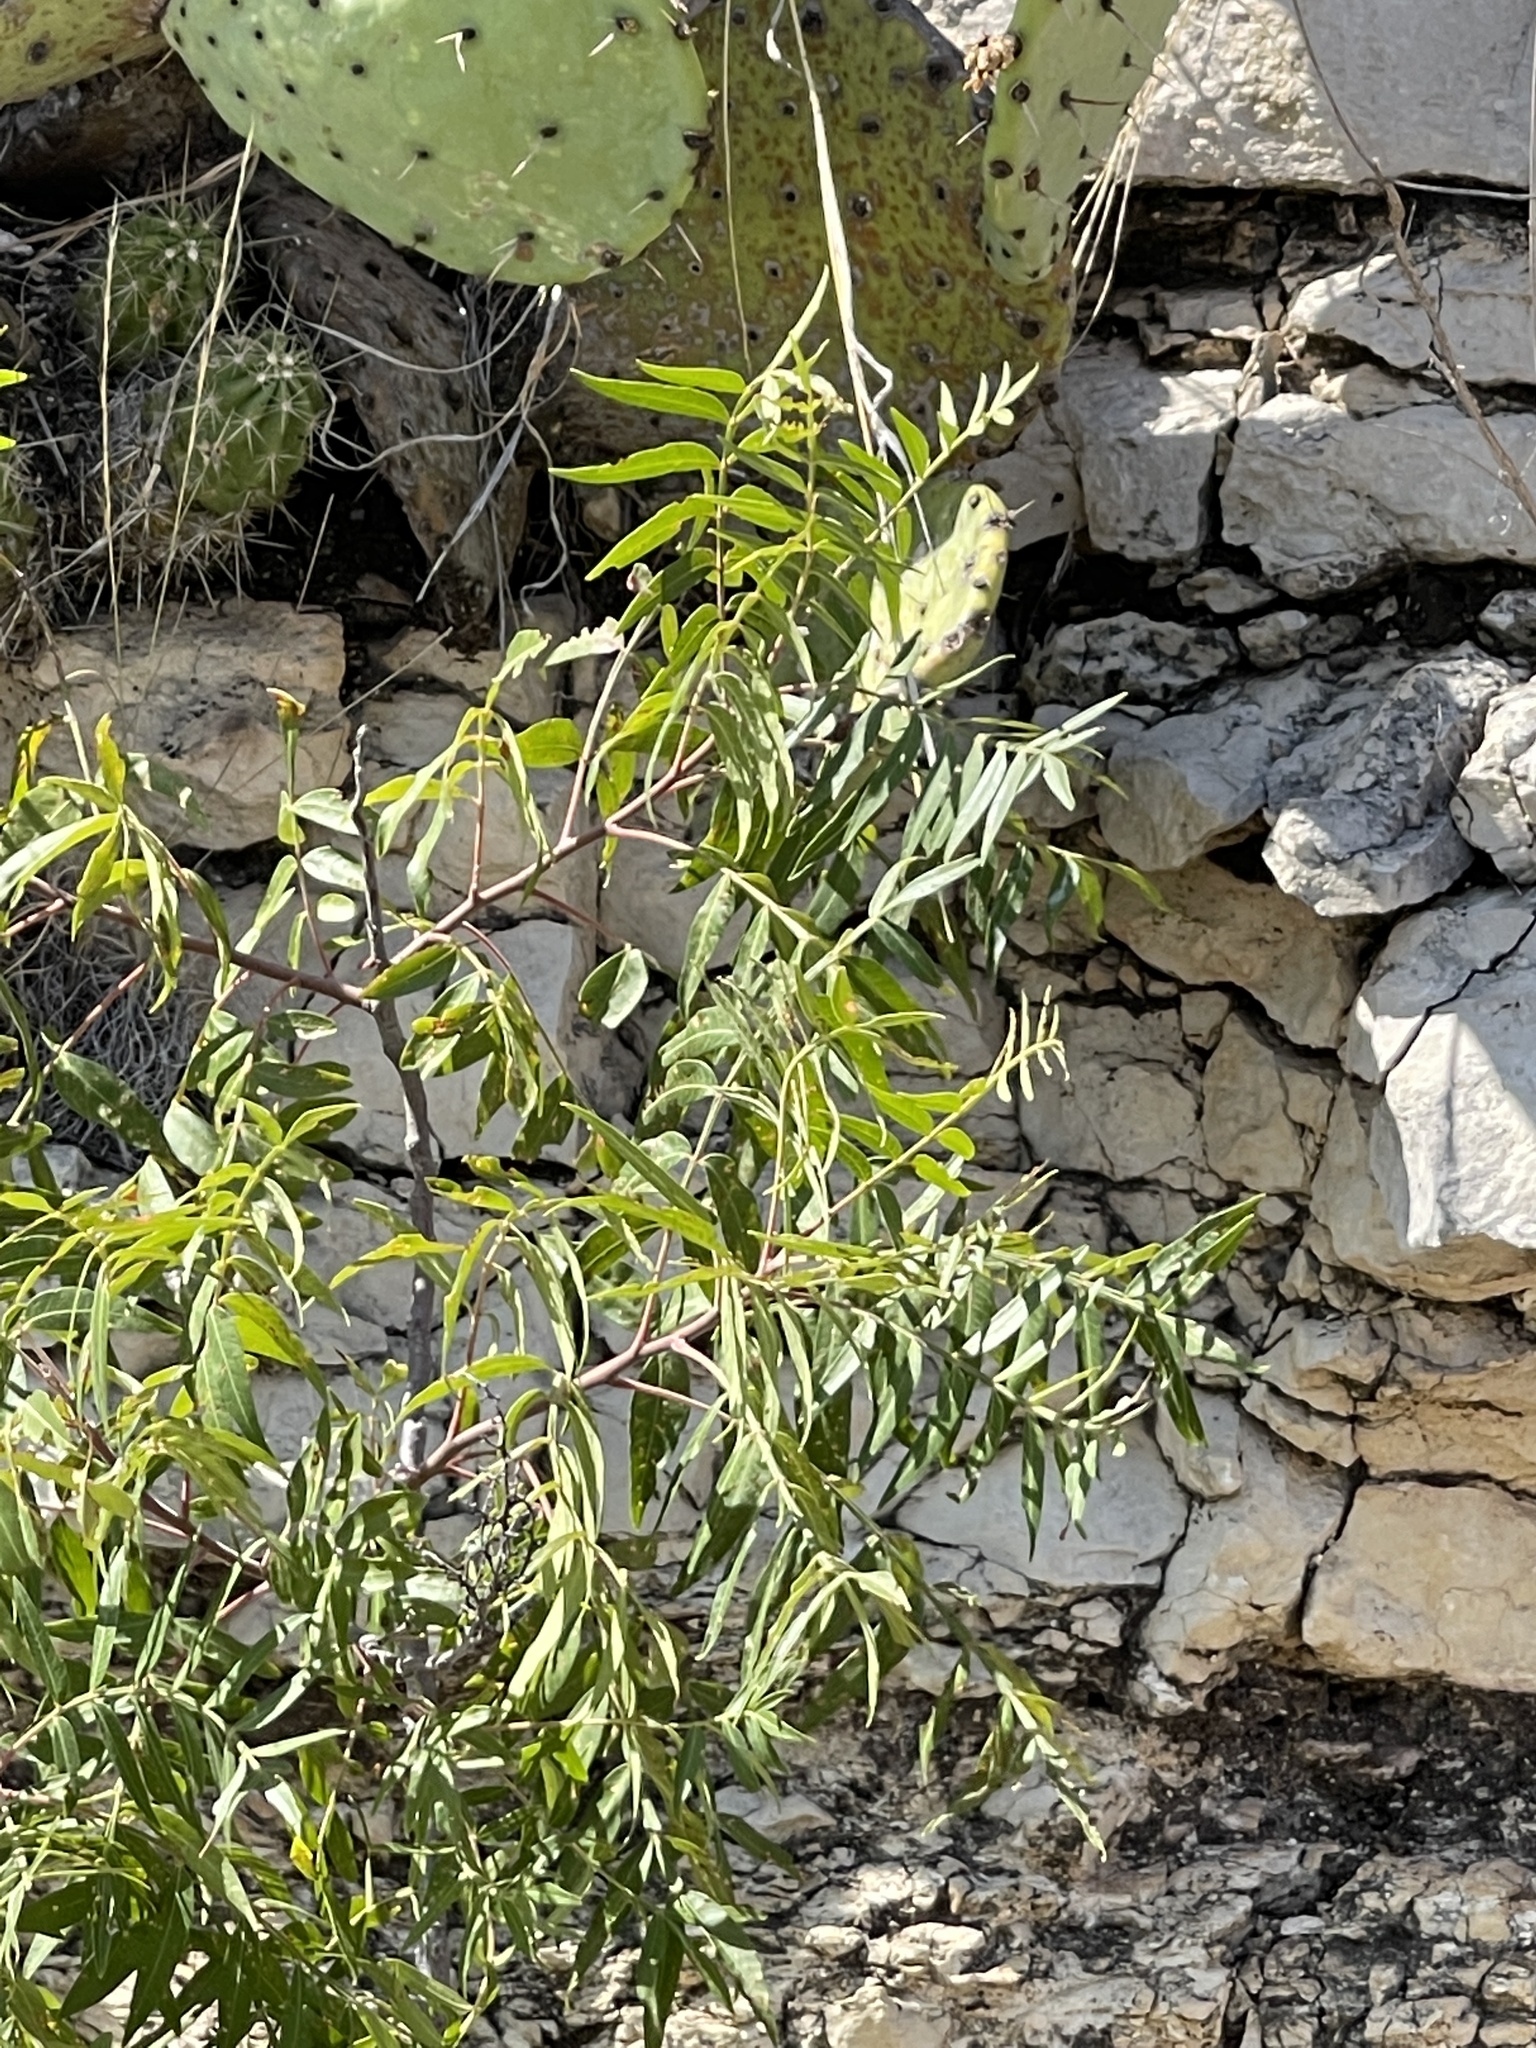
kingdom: Plantae
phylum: Tracheophyta
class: Magnoliopsida
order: Sapindales
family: Anacardiaceae
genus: Rhus
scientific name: Rhus lanceolata
